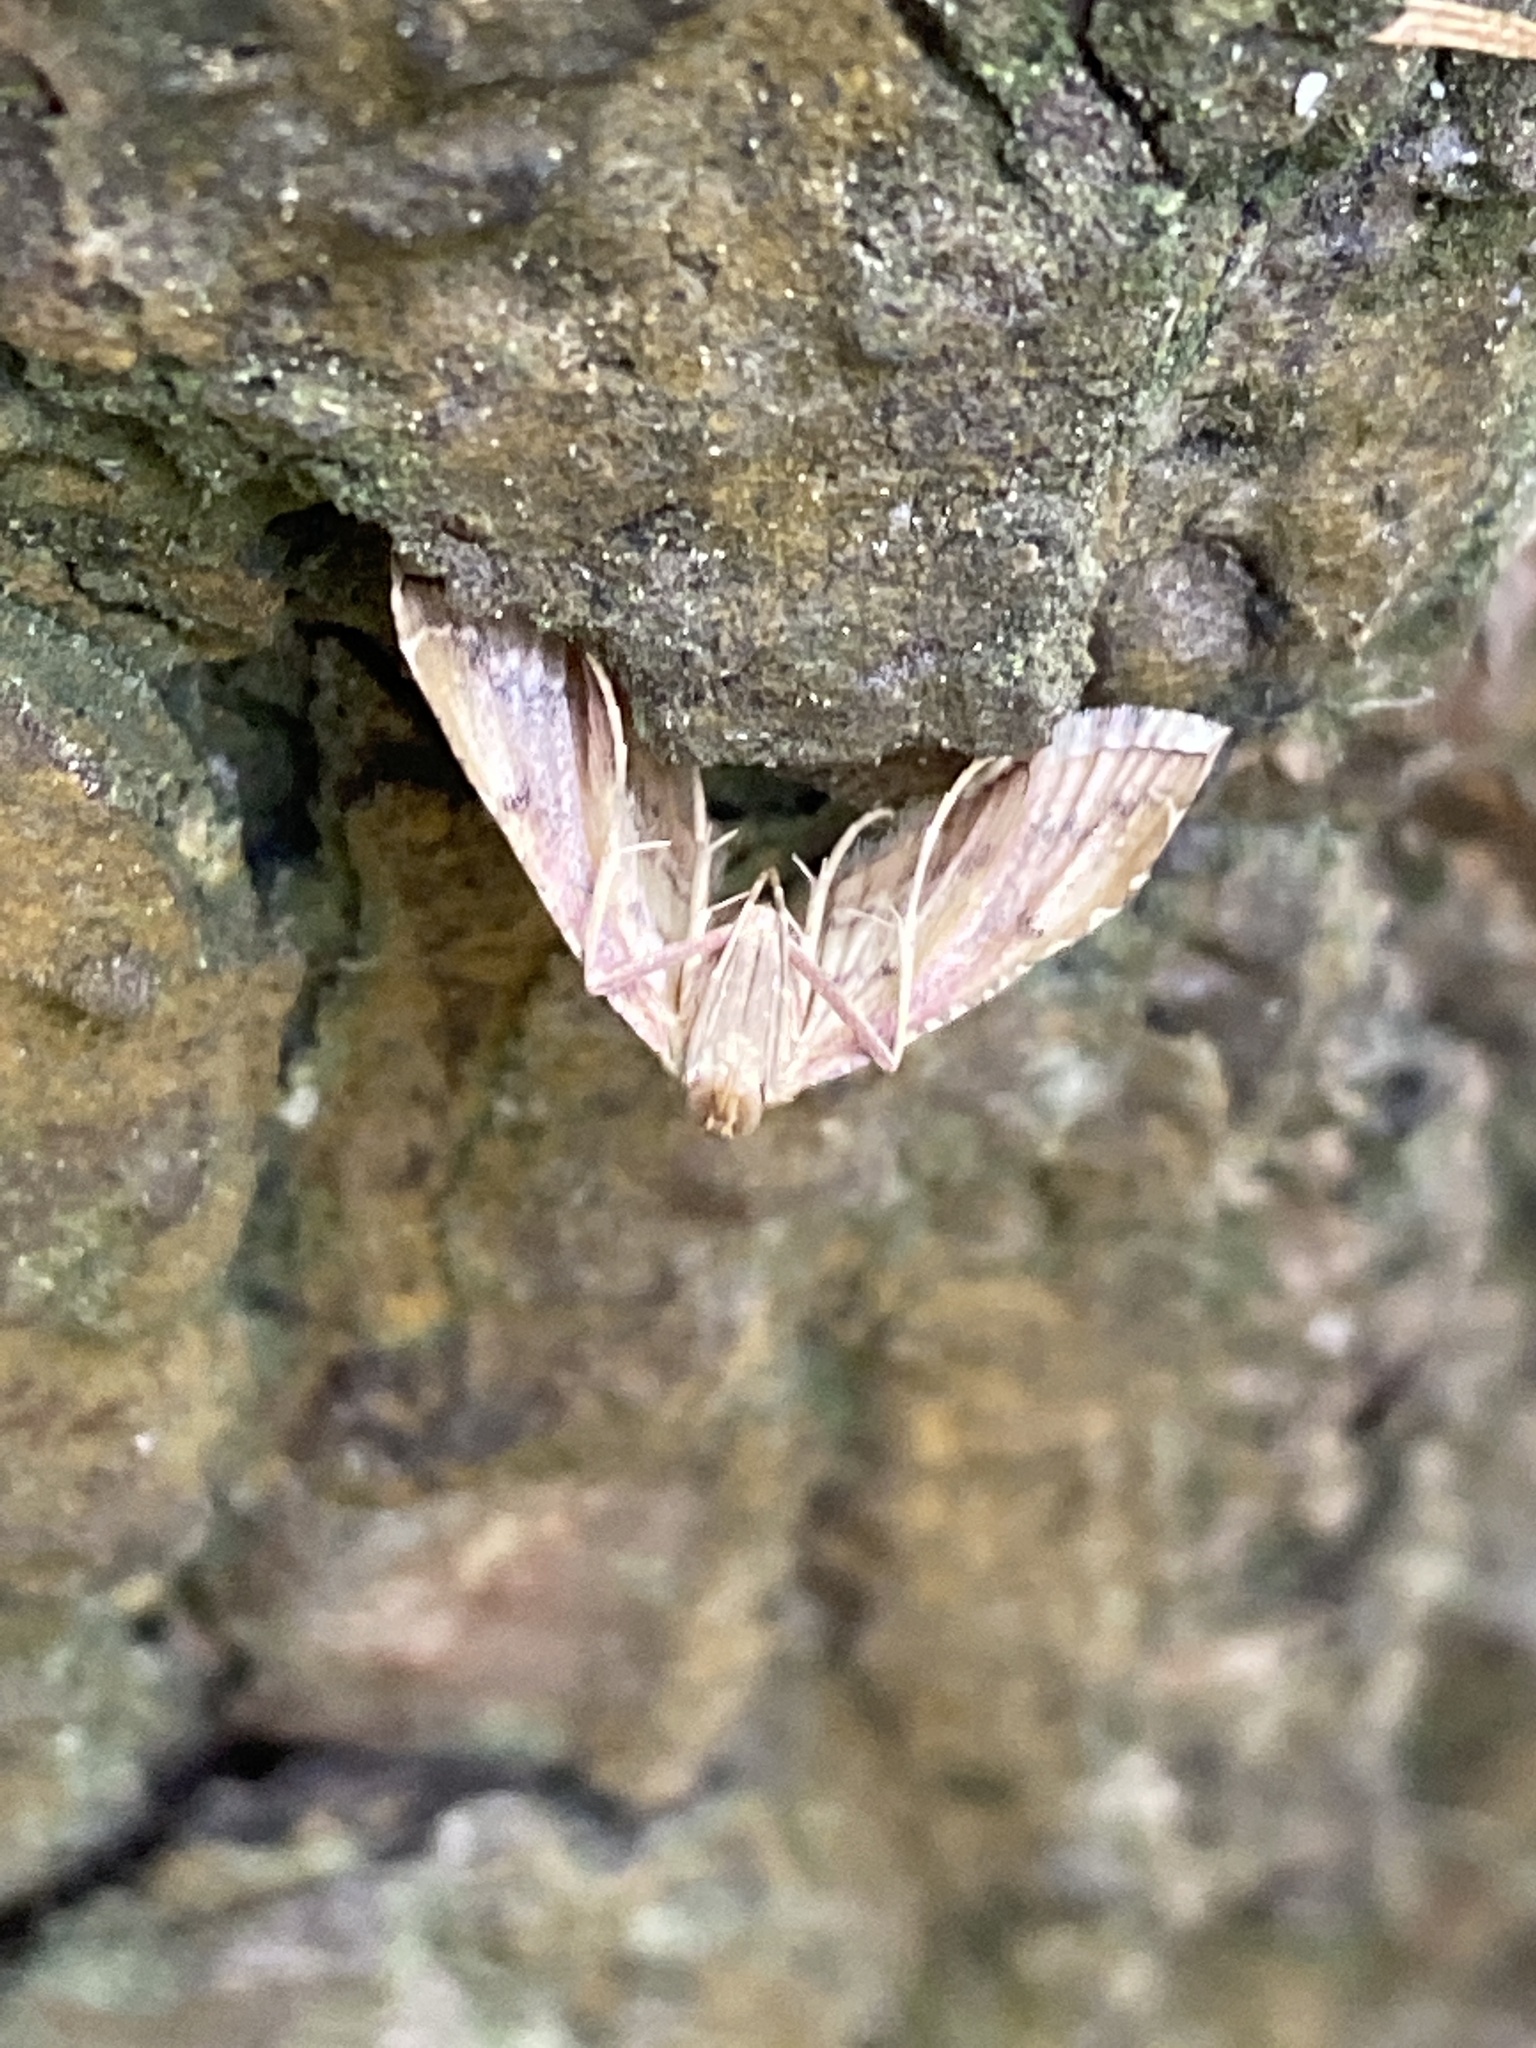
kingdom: Animalia
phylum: Arthropoda
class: Insecta
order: Lepidoptera
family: Pyralidae
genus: Endotricha
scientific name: Endotricha flammealis
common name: Rosy tabby
